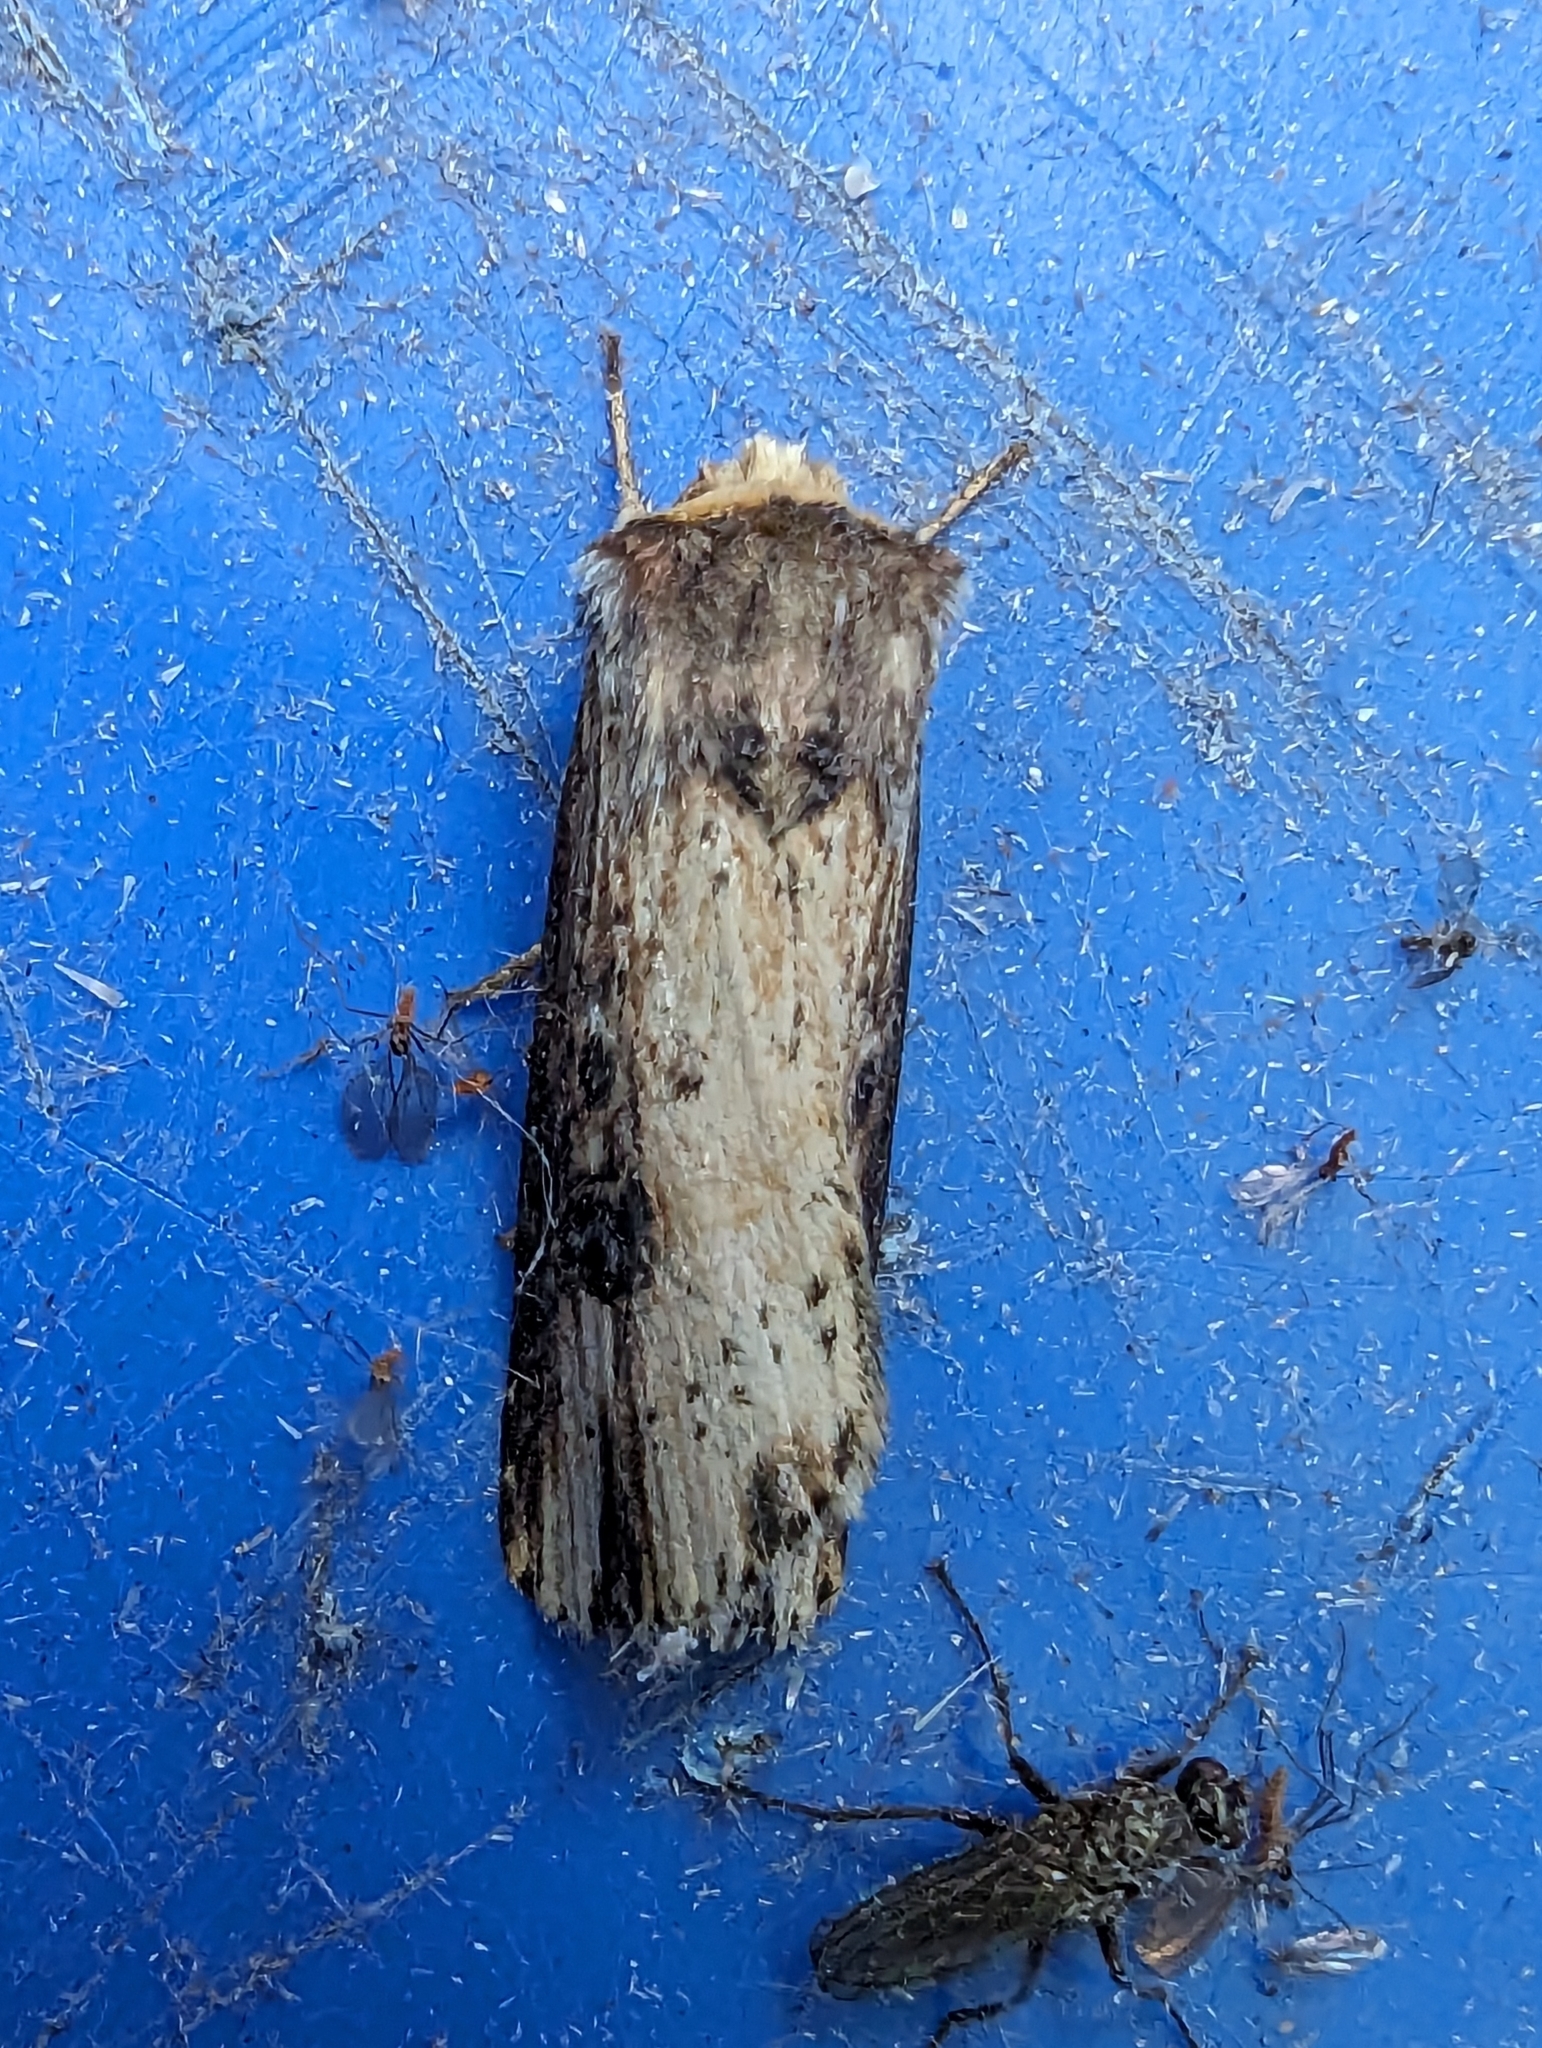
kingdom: Animalia
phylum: Arthropoda
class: Insecta
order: Lepidoptera
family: Noctuidae
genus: Axylia
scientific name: Axylia putris
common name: Flame
